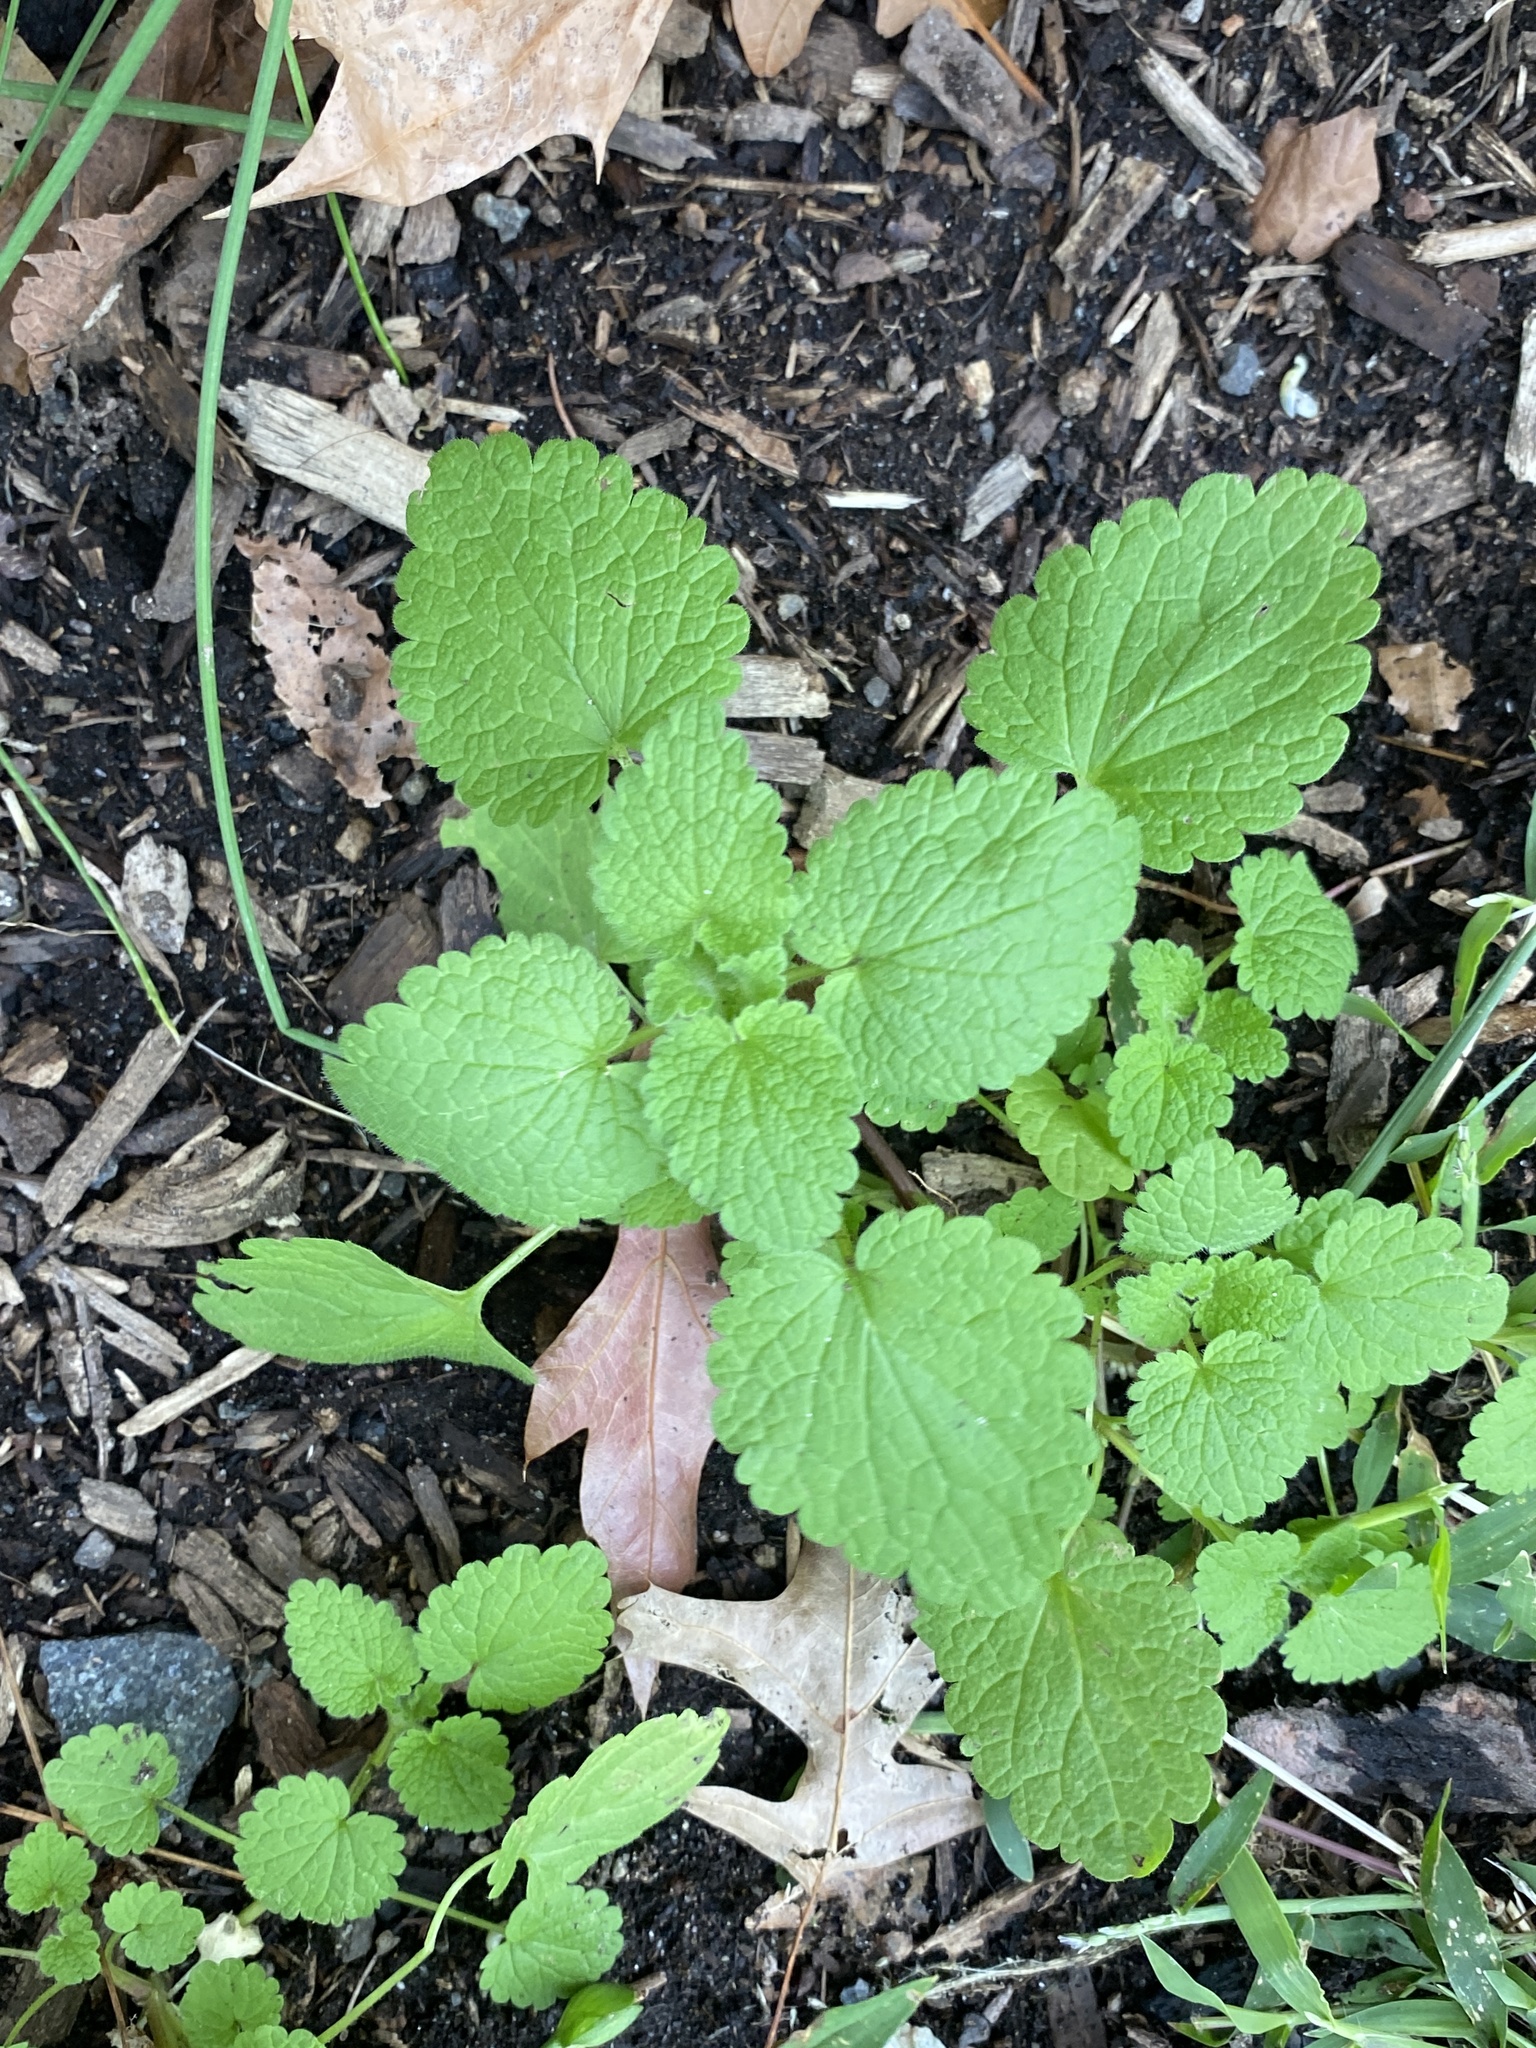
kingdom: Plantae
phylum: Tracheophyta
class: Magnoliopsida
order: Lamiales
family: Lamiaceae
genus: Lamium
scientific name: Lamium purpureum
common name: Red dead-nettle
